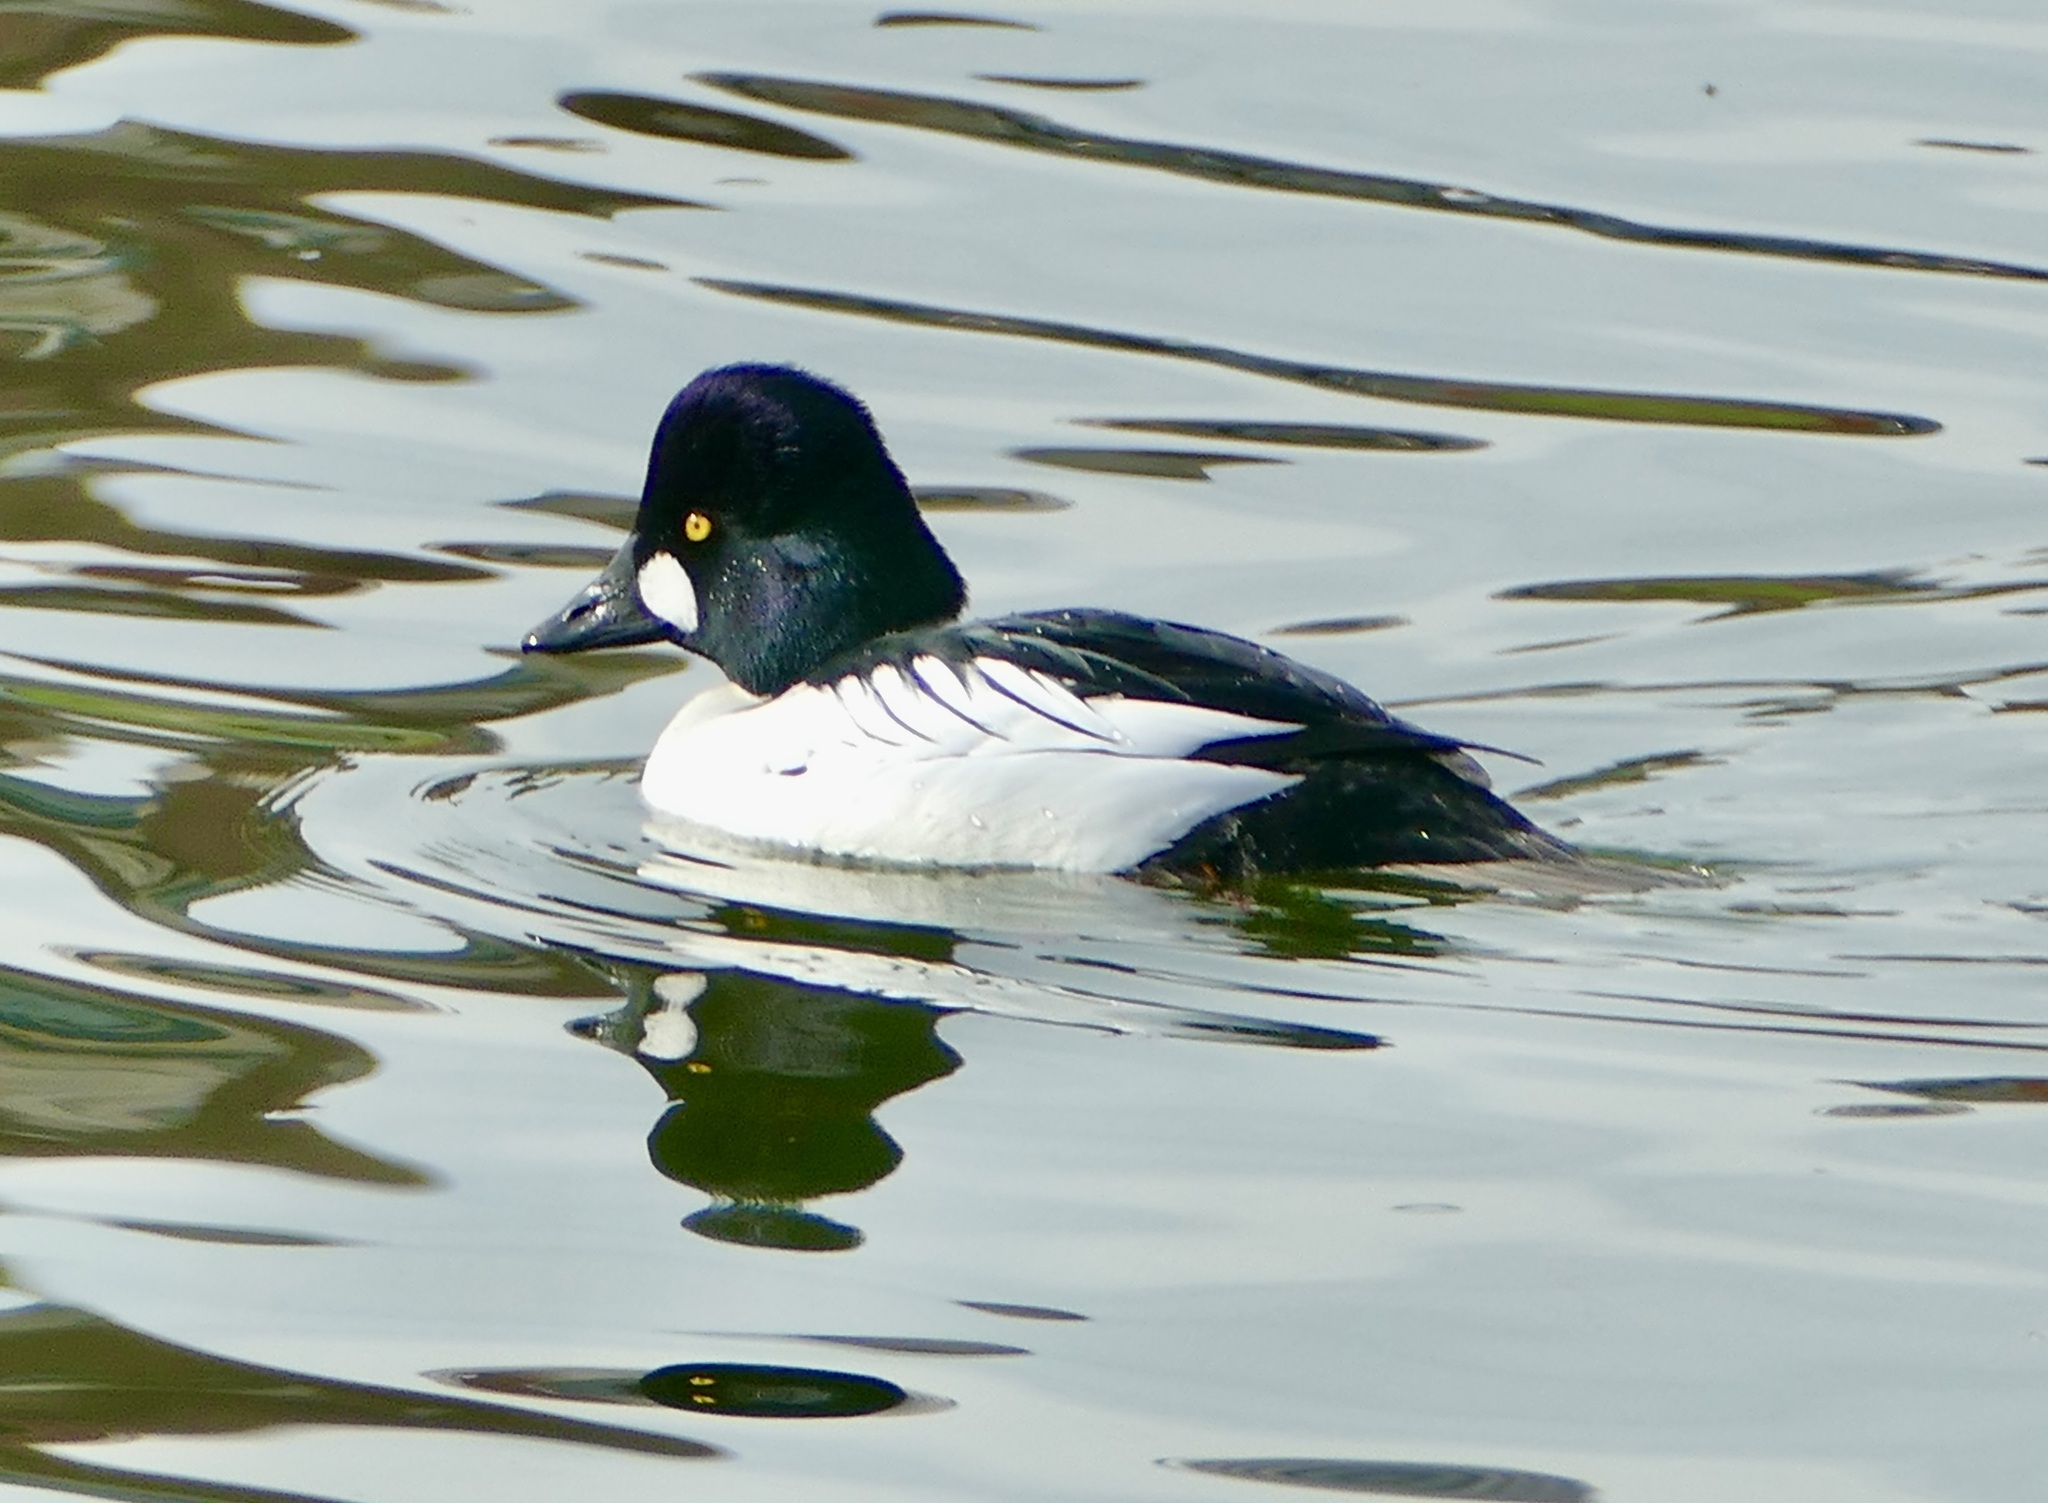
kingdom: Animalia
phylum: Chordata
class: Aves
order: Anseriformes
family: Anatidae
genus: Bucephala
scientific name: Bucephala clangula
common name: Common goldeneye
